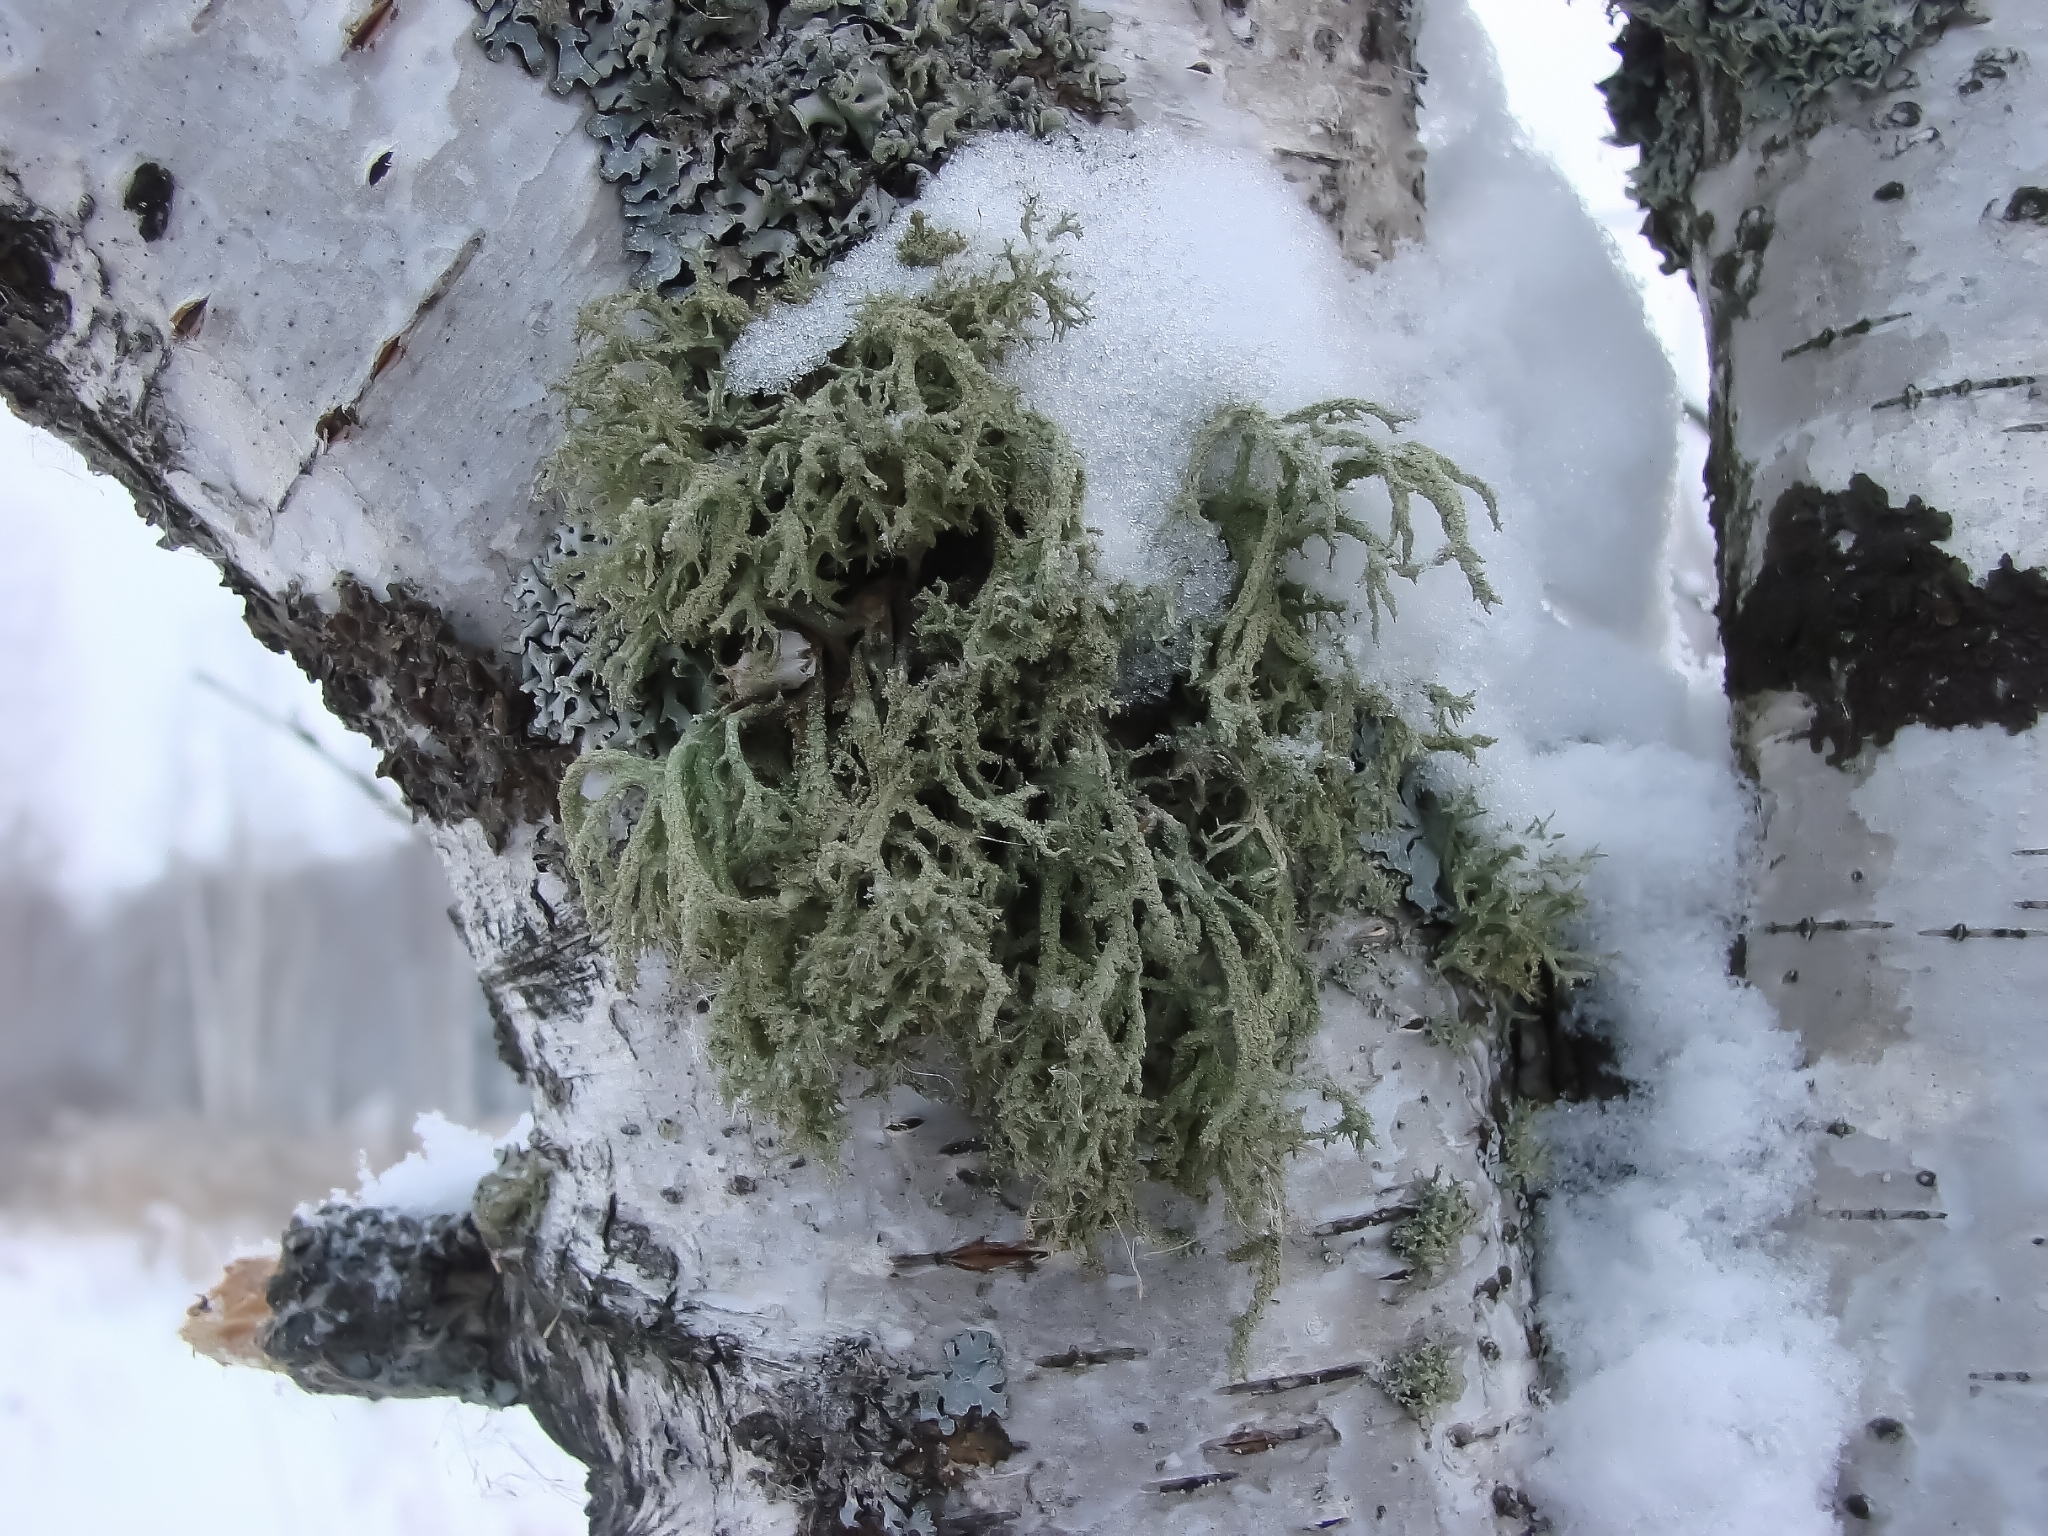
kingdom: Fungi
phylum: Ascomycota
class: Lecanoromycetes
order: Lecanorales
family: Parmeliaceae
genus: Evernia
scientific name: Evernia mesomorpha
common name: Boreal oak moss lichen
